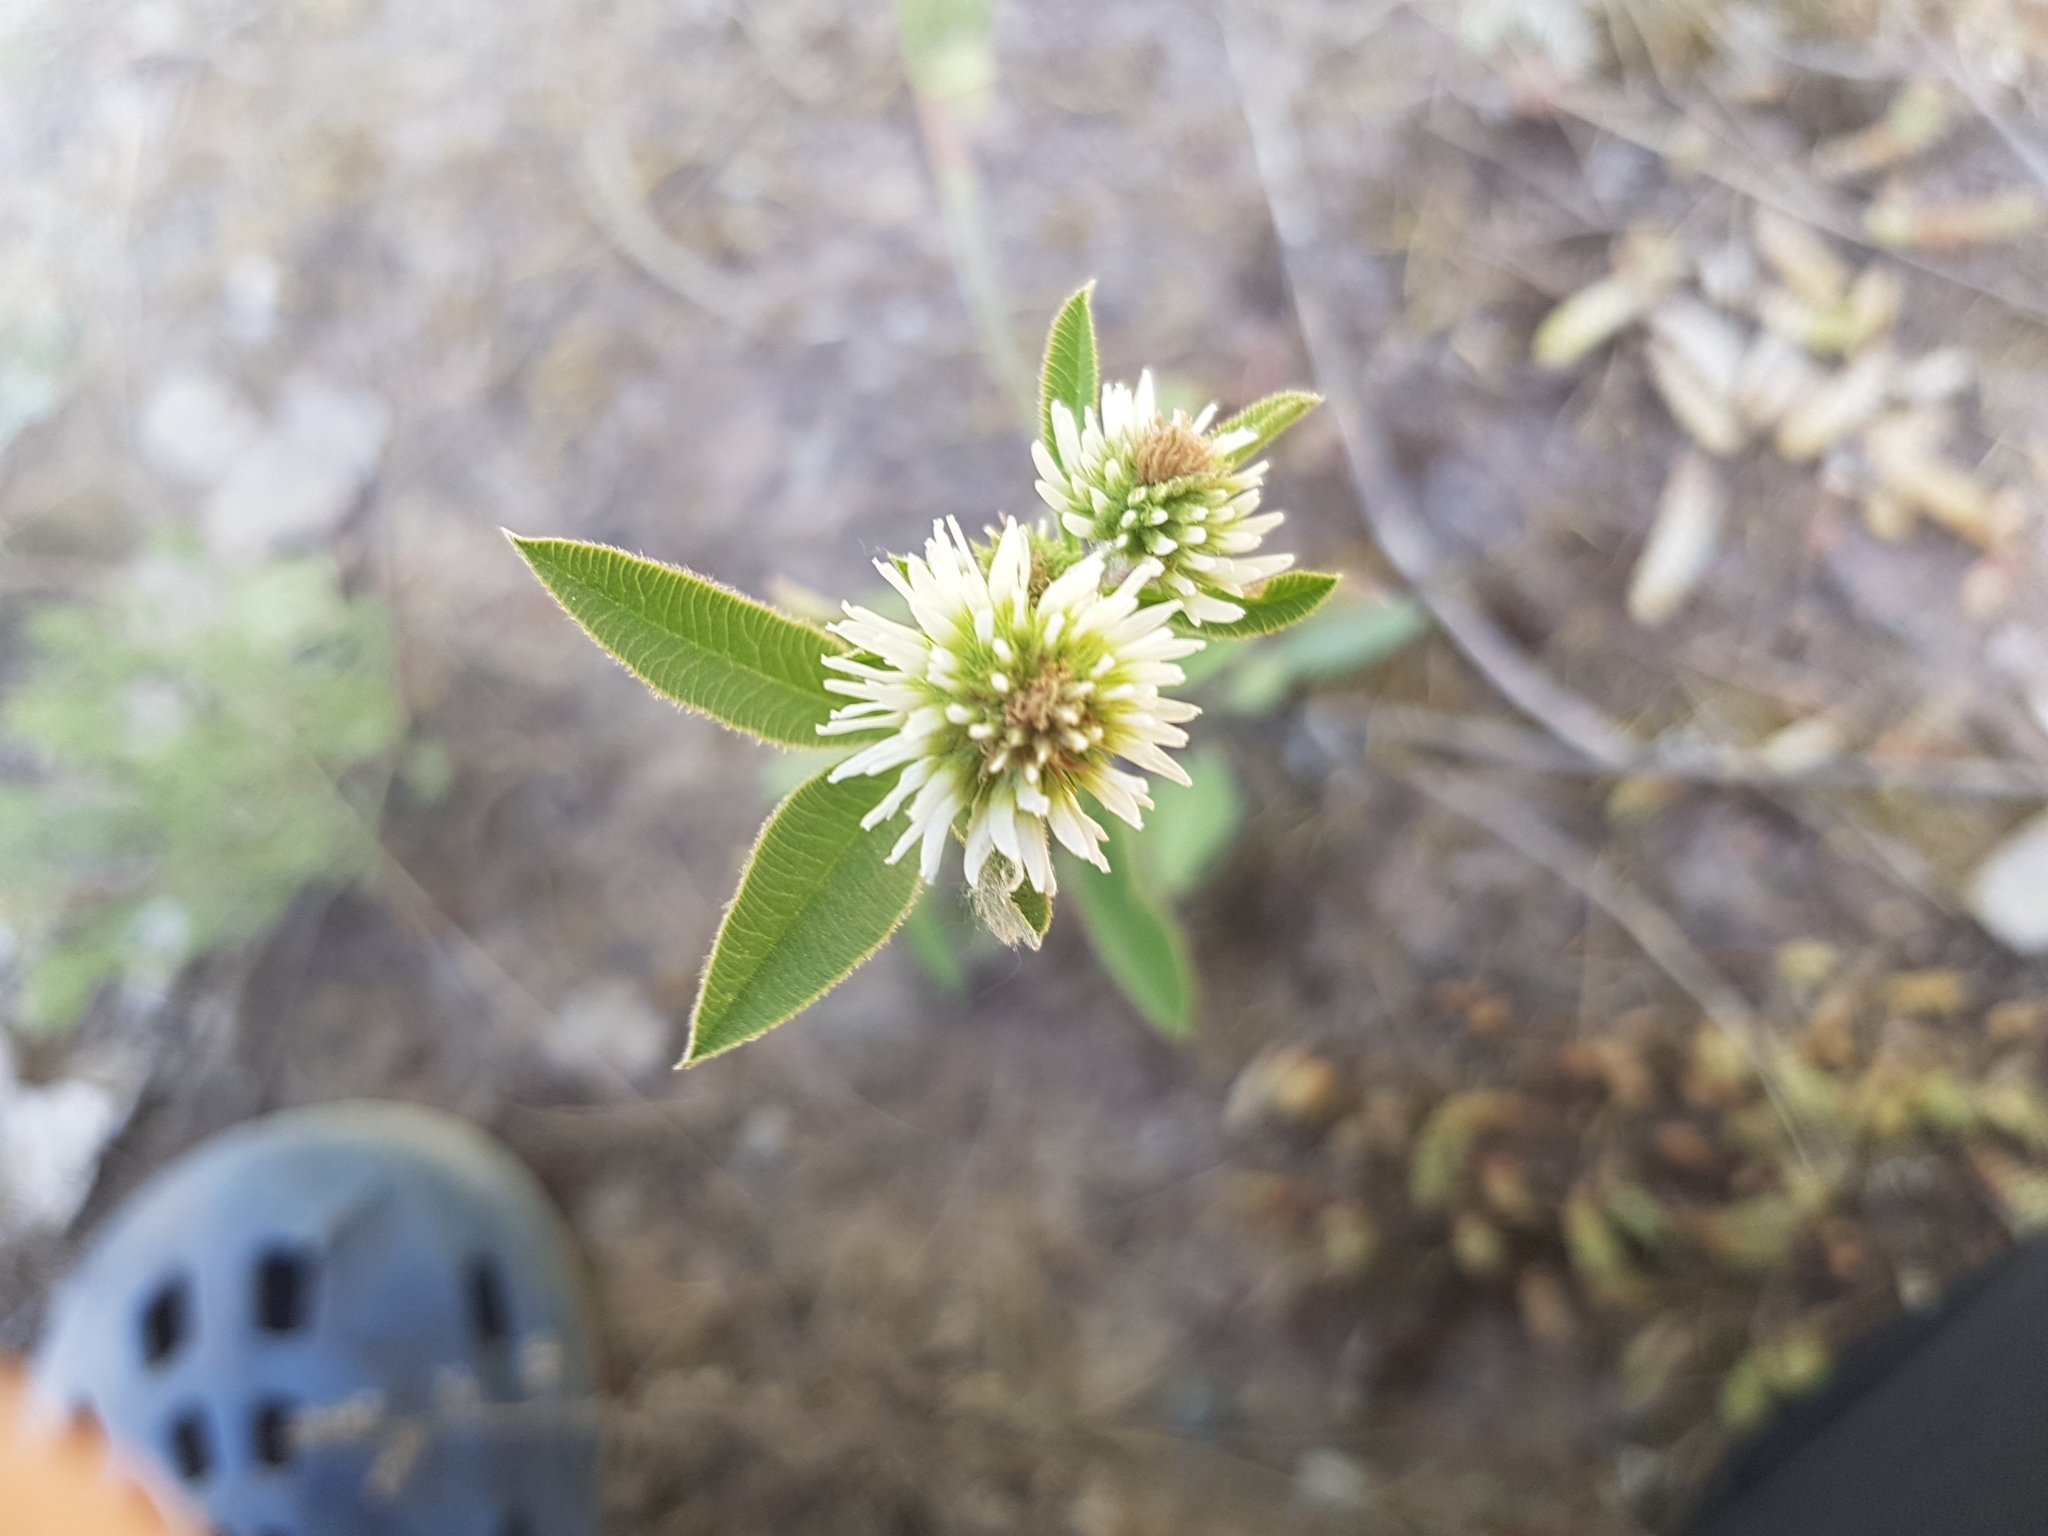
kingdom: Plantae
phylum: Tracheophyta
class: Magnoliopsida
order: Fabales
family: Fabaceae
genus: Trifolium
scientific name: Trifolium montanum
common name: Mountain clover
